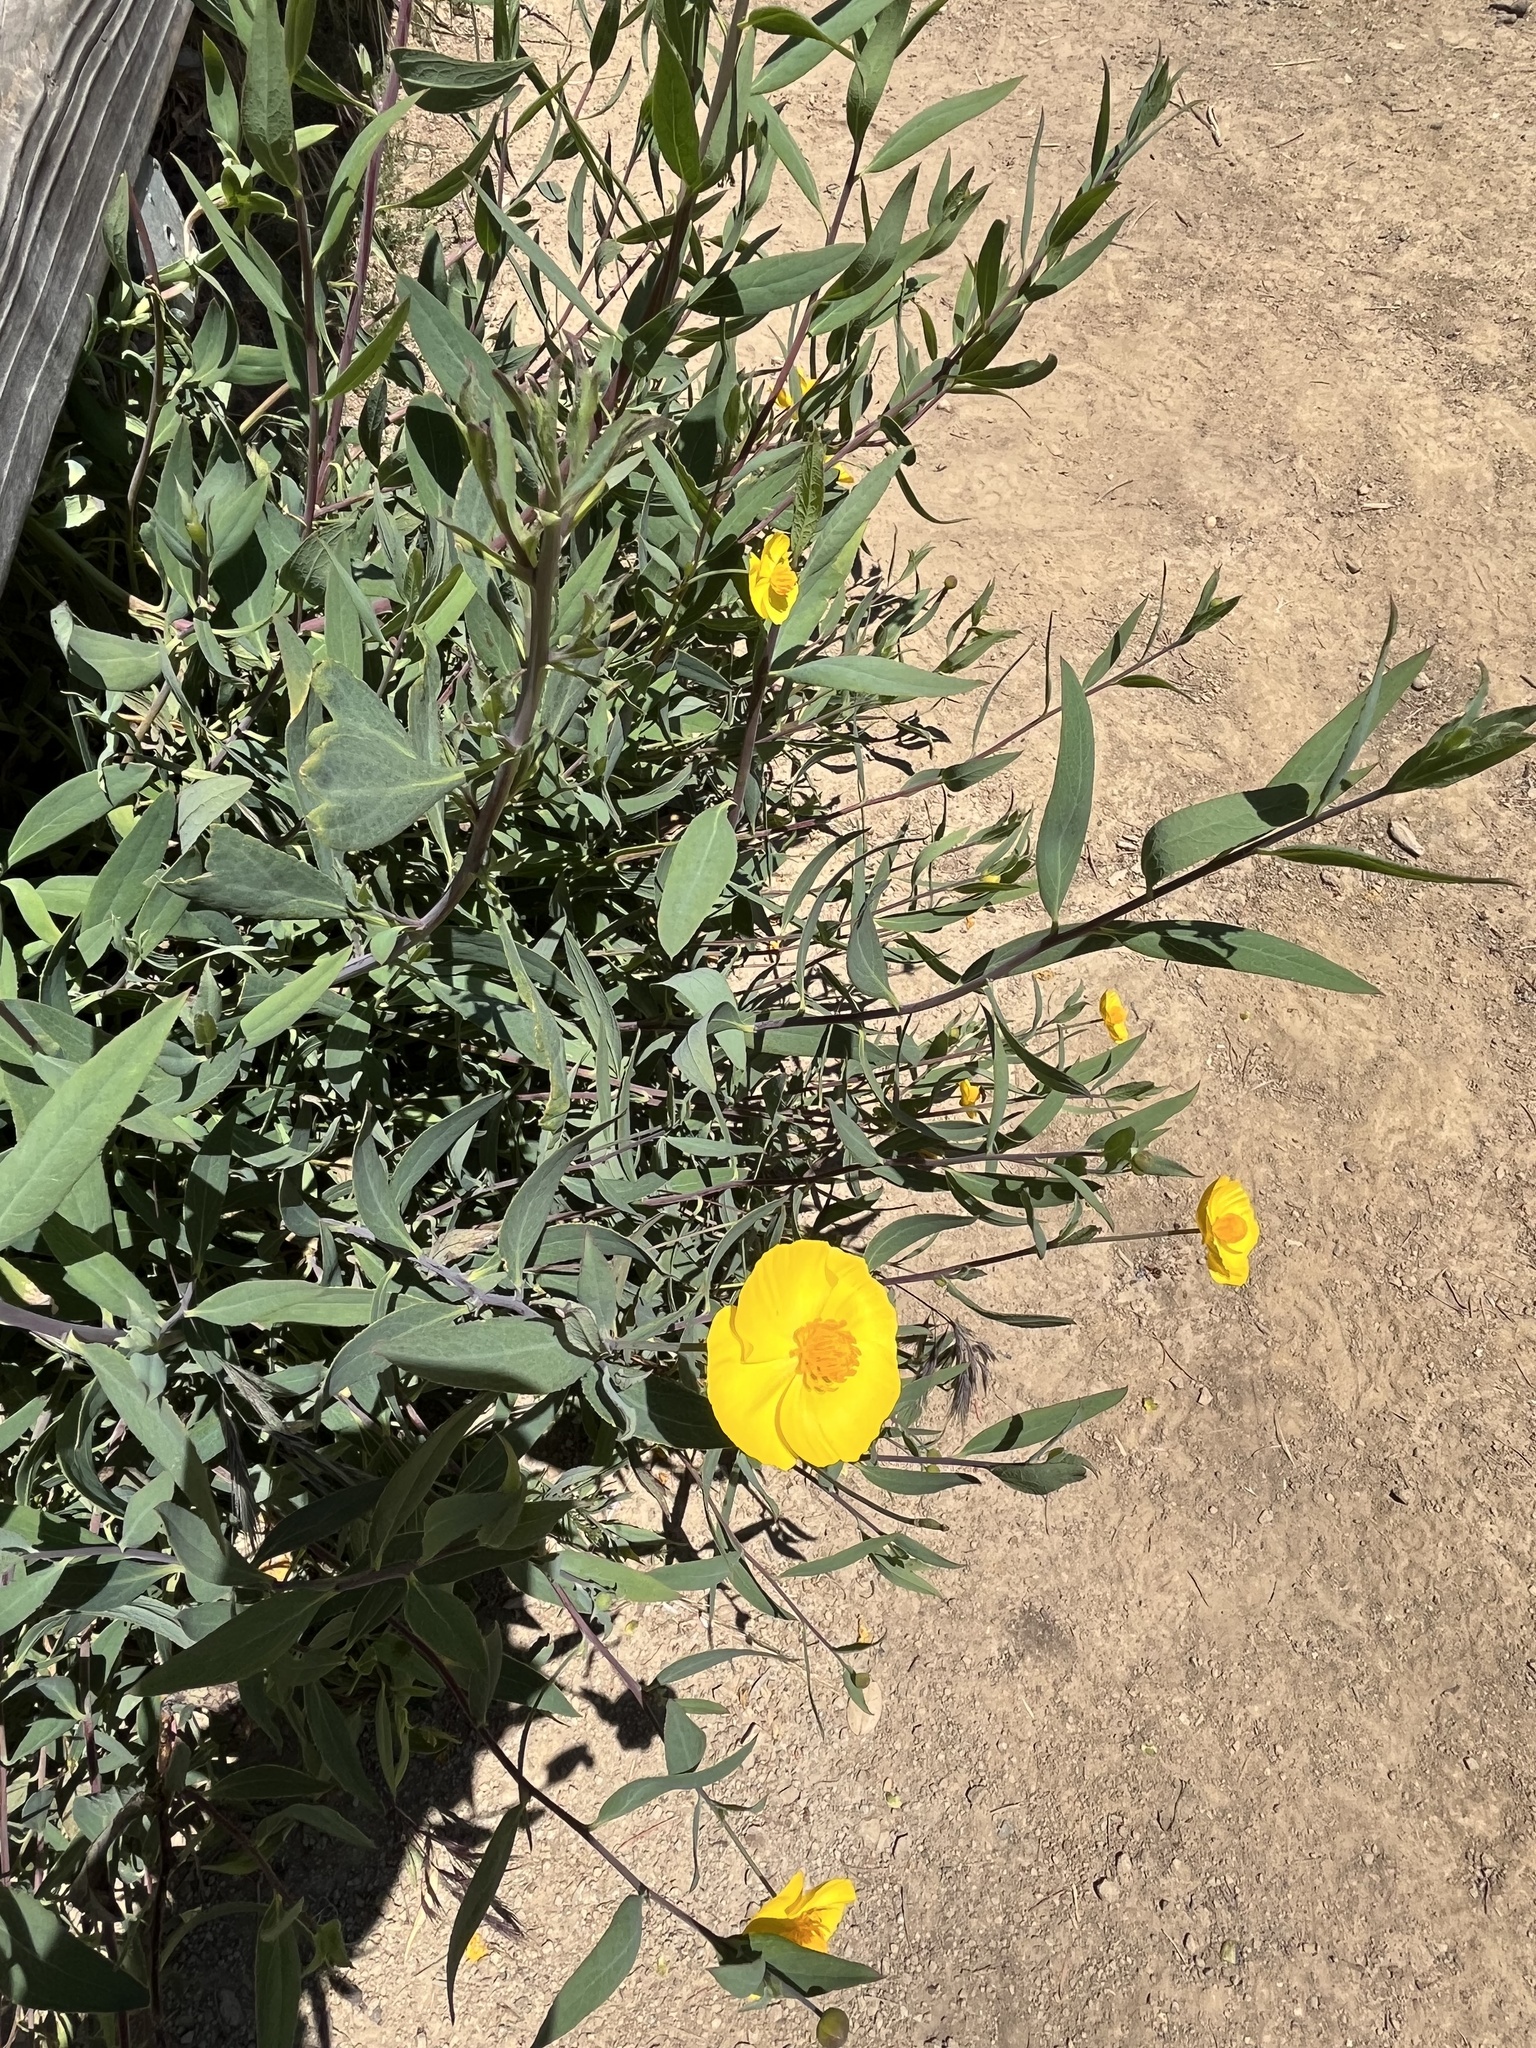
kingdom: Plantae
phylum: Tracheophyta
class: Magnoliopsida
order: Ranunculales
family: Papaveraceae
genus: Dendromecon
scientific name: Dendromecon rigida
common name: Tree poppy
